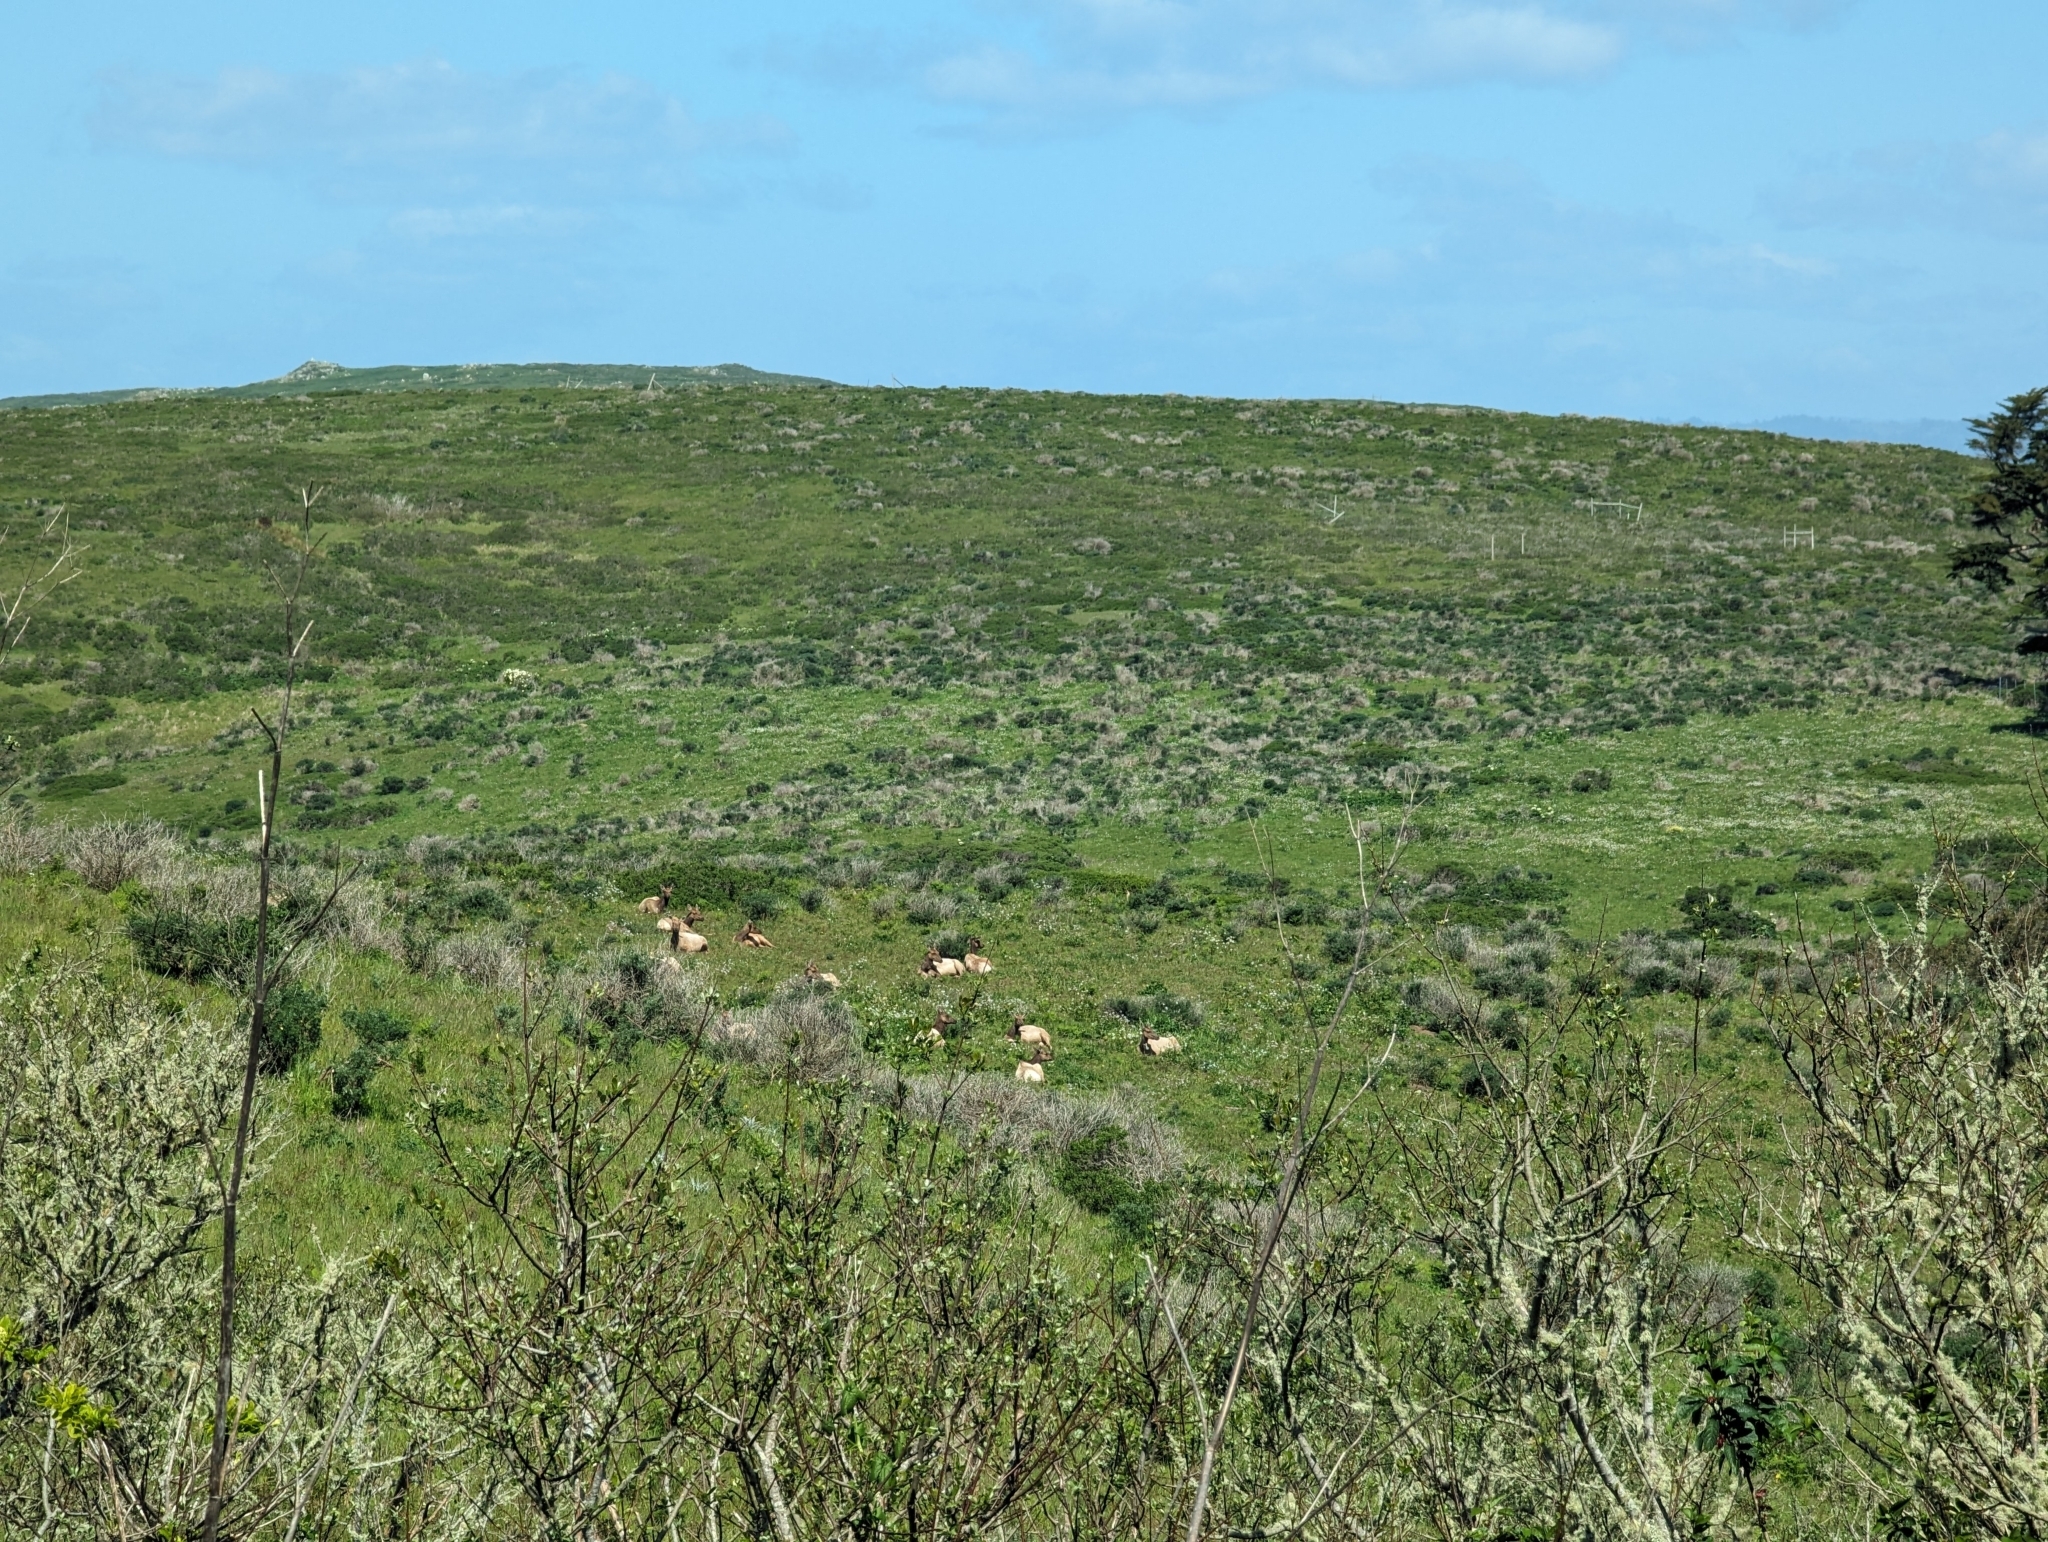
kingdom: Animalia
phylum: Chordata
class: Mammalia
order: Artiodactyla
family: Cervidae
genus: Cervus
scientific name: Cervus elaphus
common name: Red deer
